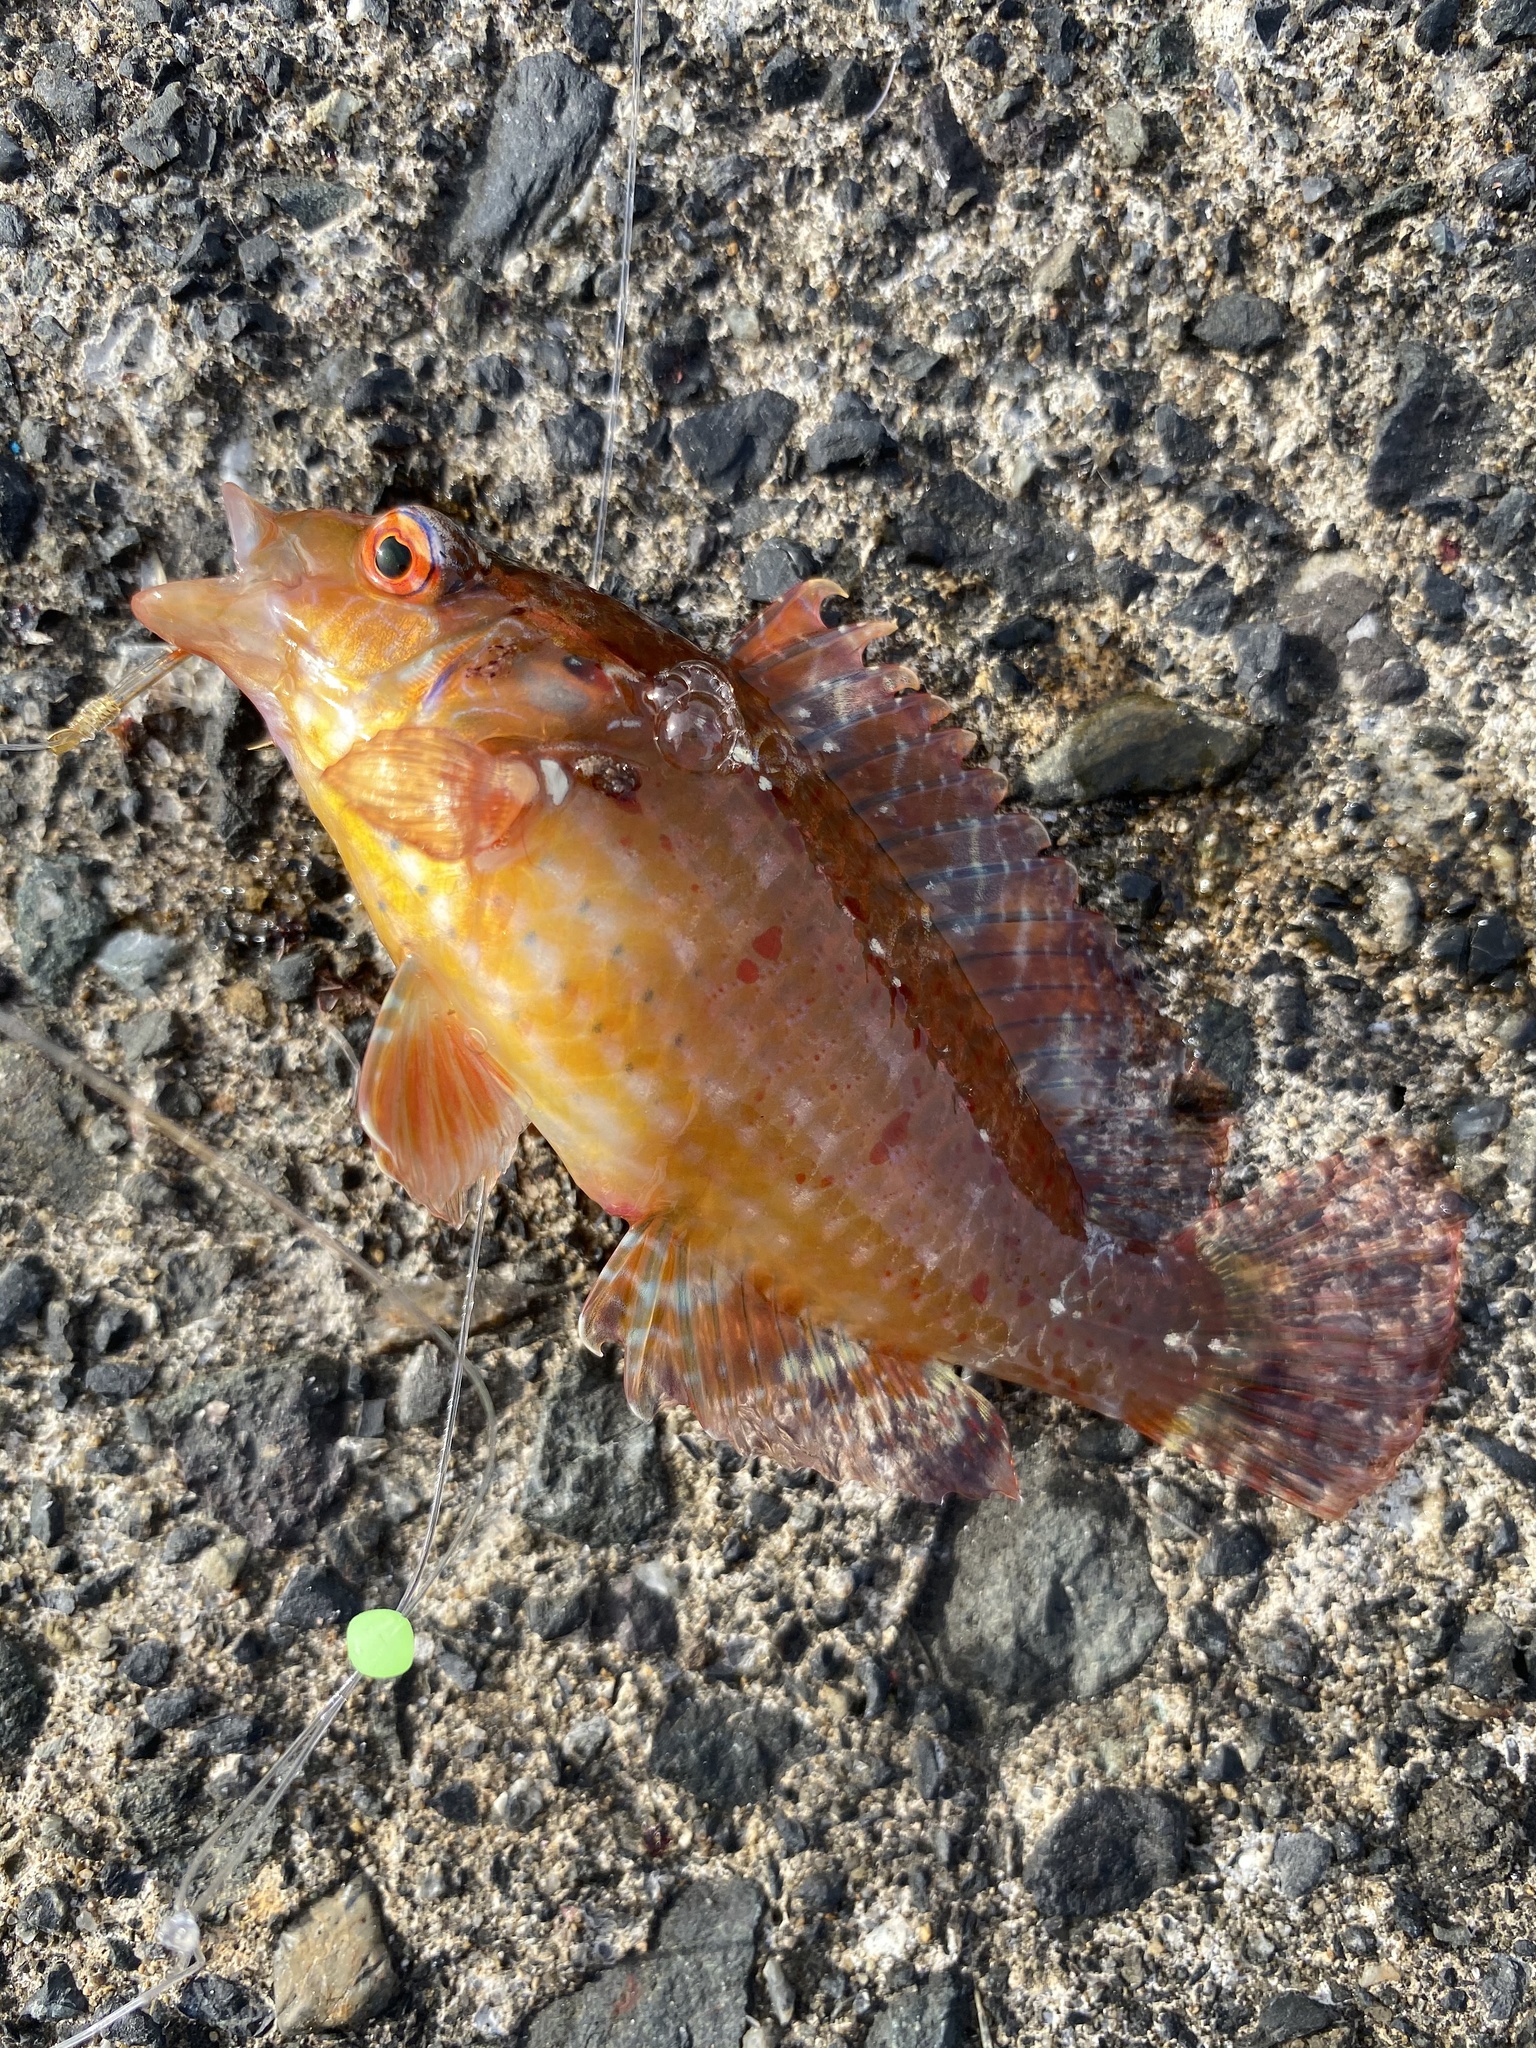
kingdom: Animalia
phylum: Chordata
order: Perciformes
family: Labridae
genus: Pteragogus
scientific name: Pteragogus aurigarius
